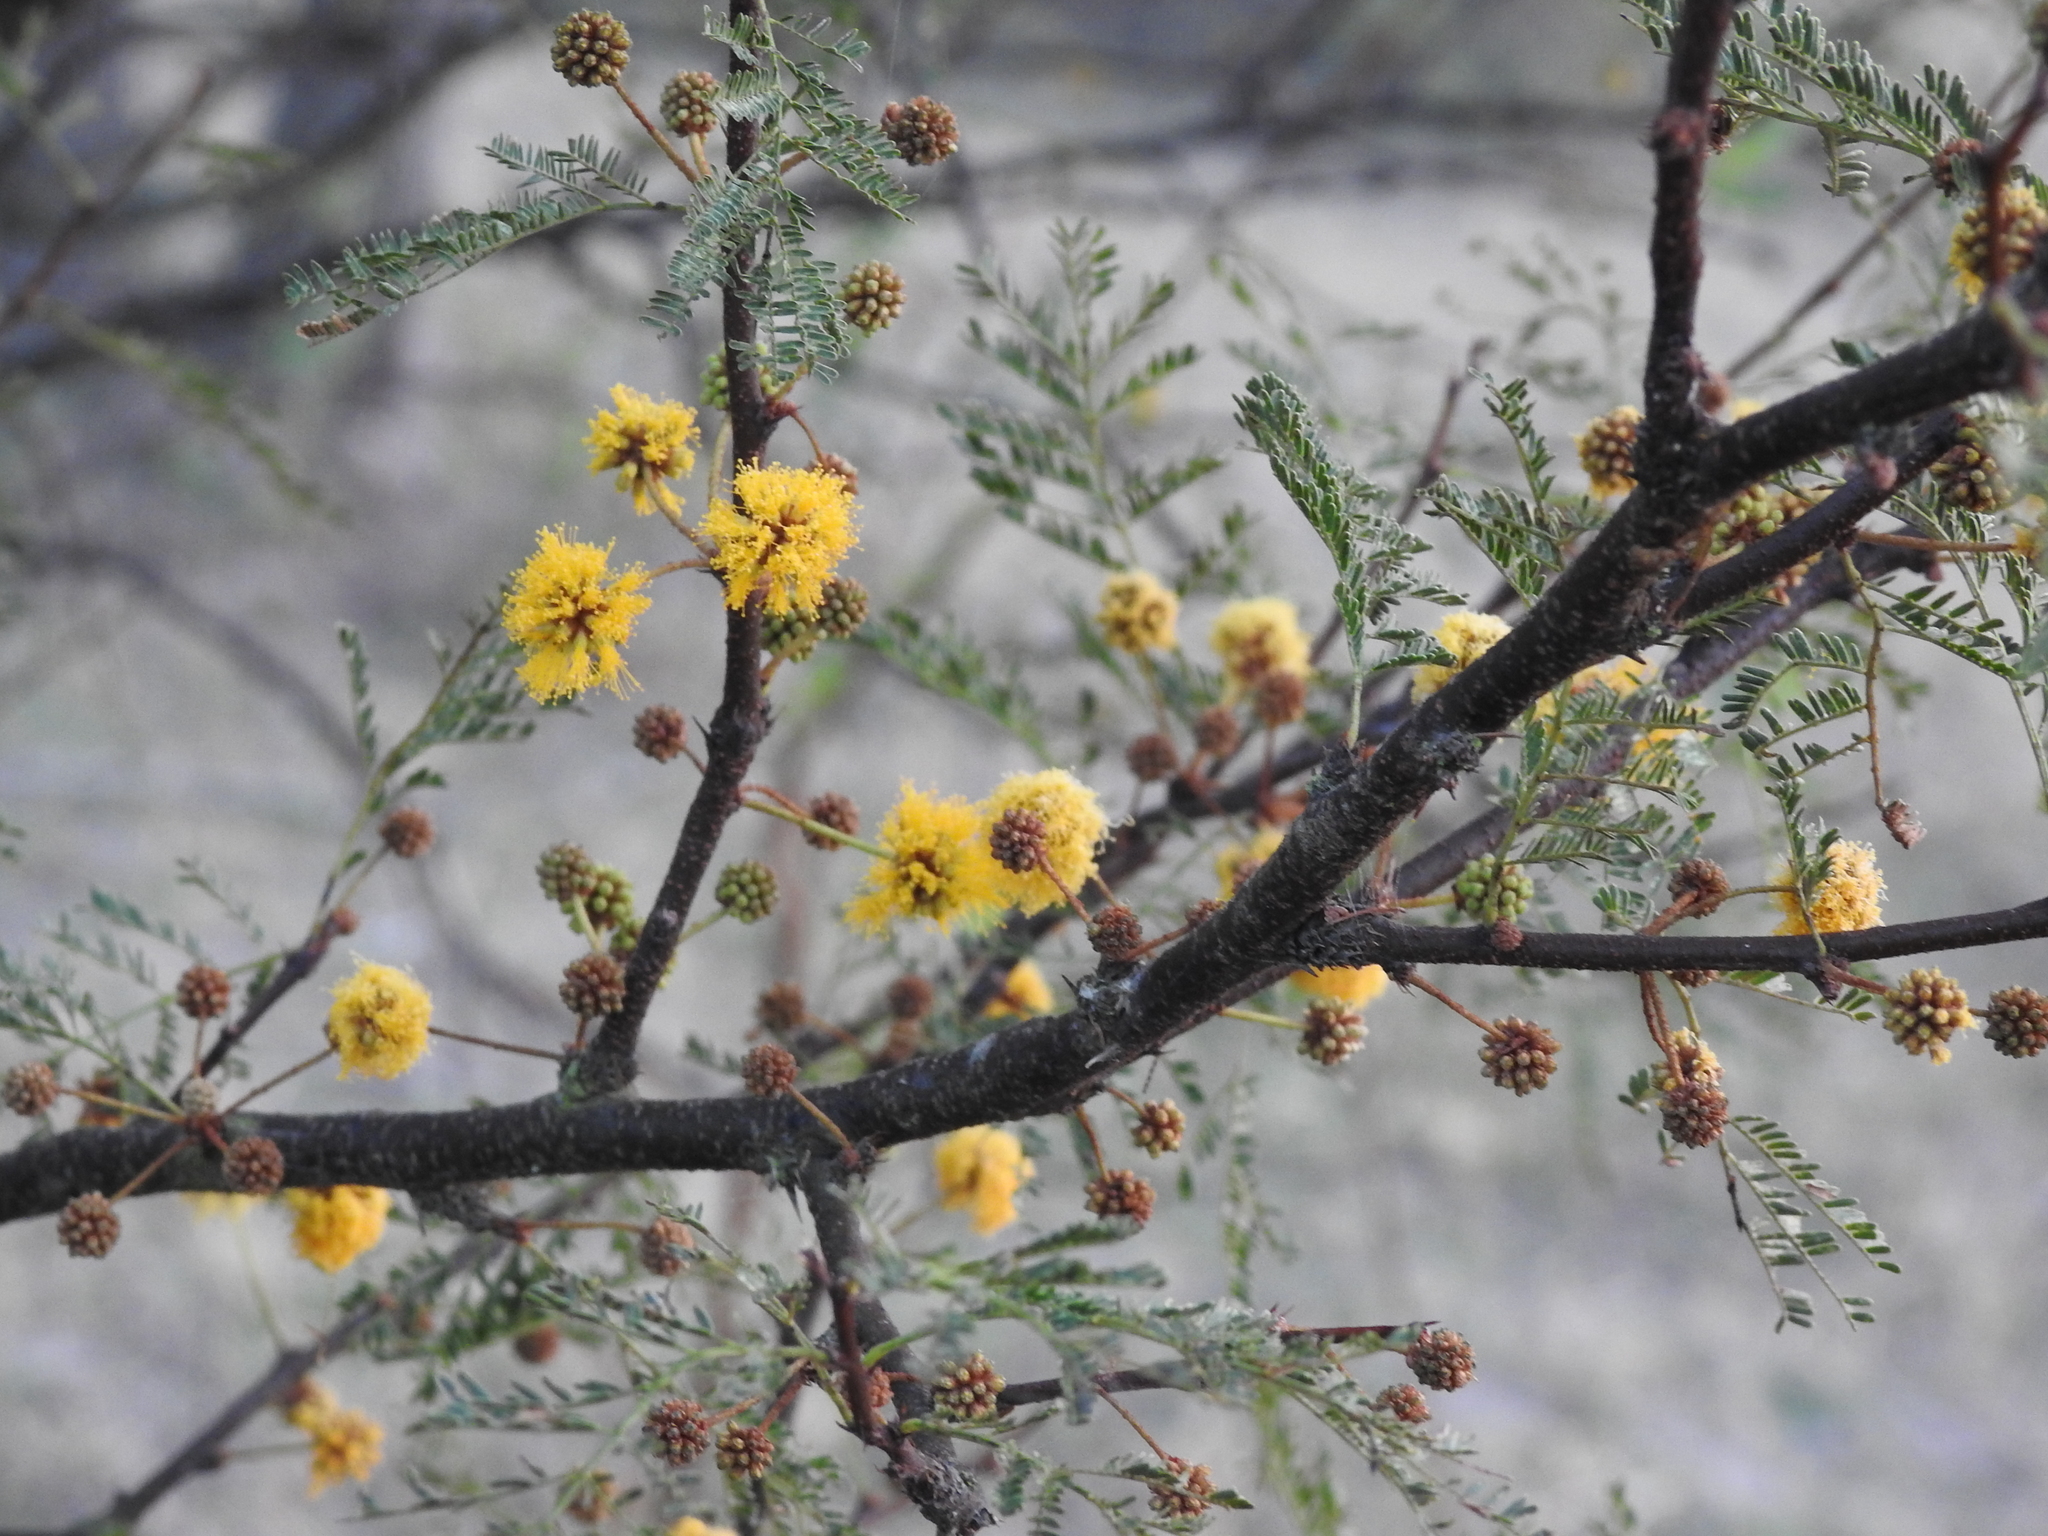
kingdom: Plantae
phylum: Tracheophyta
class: Magnoliopsida
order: Fabales
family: Fabaceae
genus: Vachellia
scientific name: Vachellia caven
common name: Roman cassie
